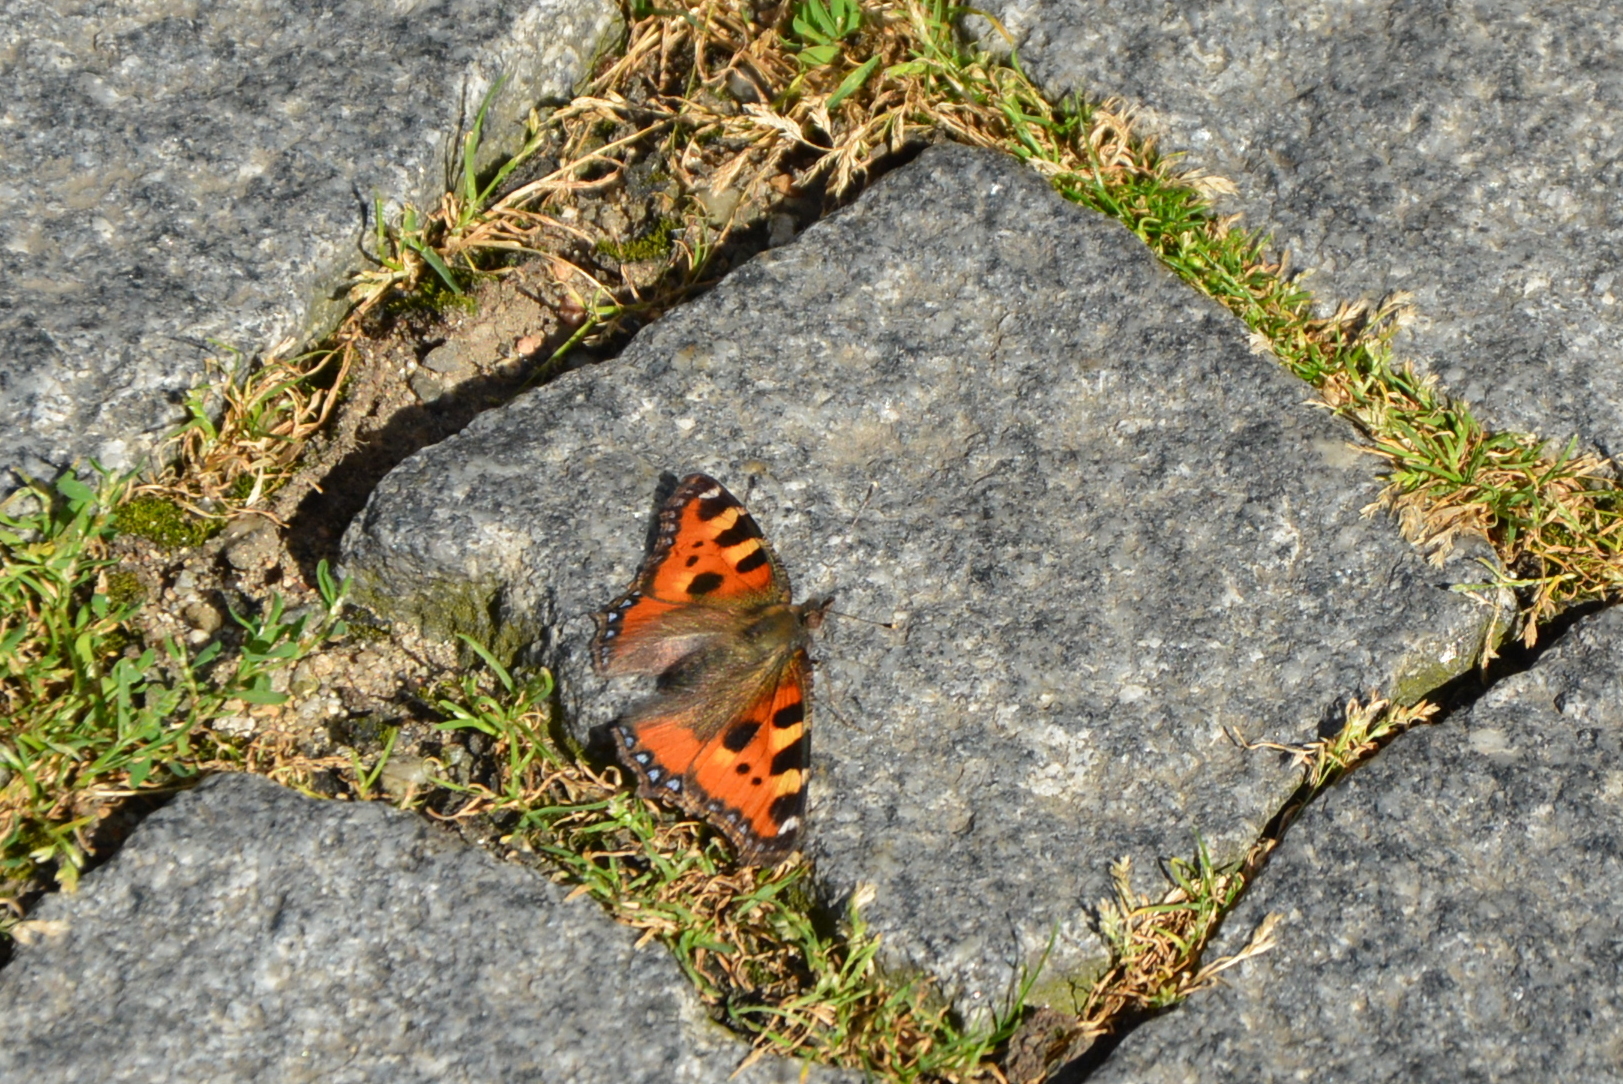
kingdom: Animalia
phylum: Arthropoda
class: Insecta
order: Lepidoptera
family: Nymphalidae
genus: Aglais
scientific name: Aglais urticae
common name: Small tortoiseshell
